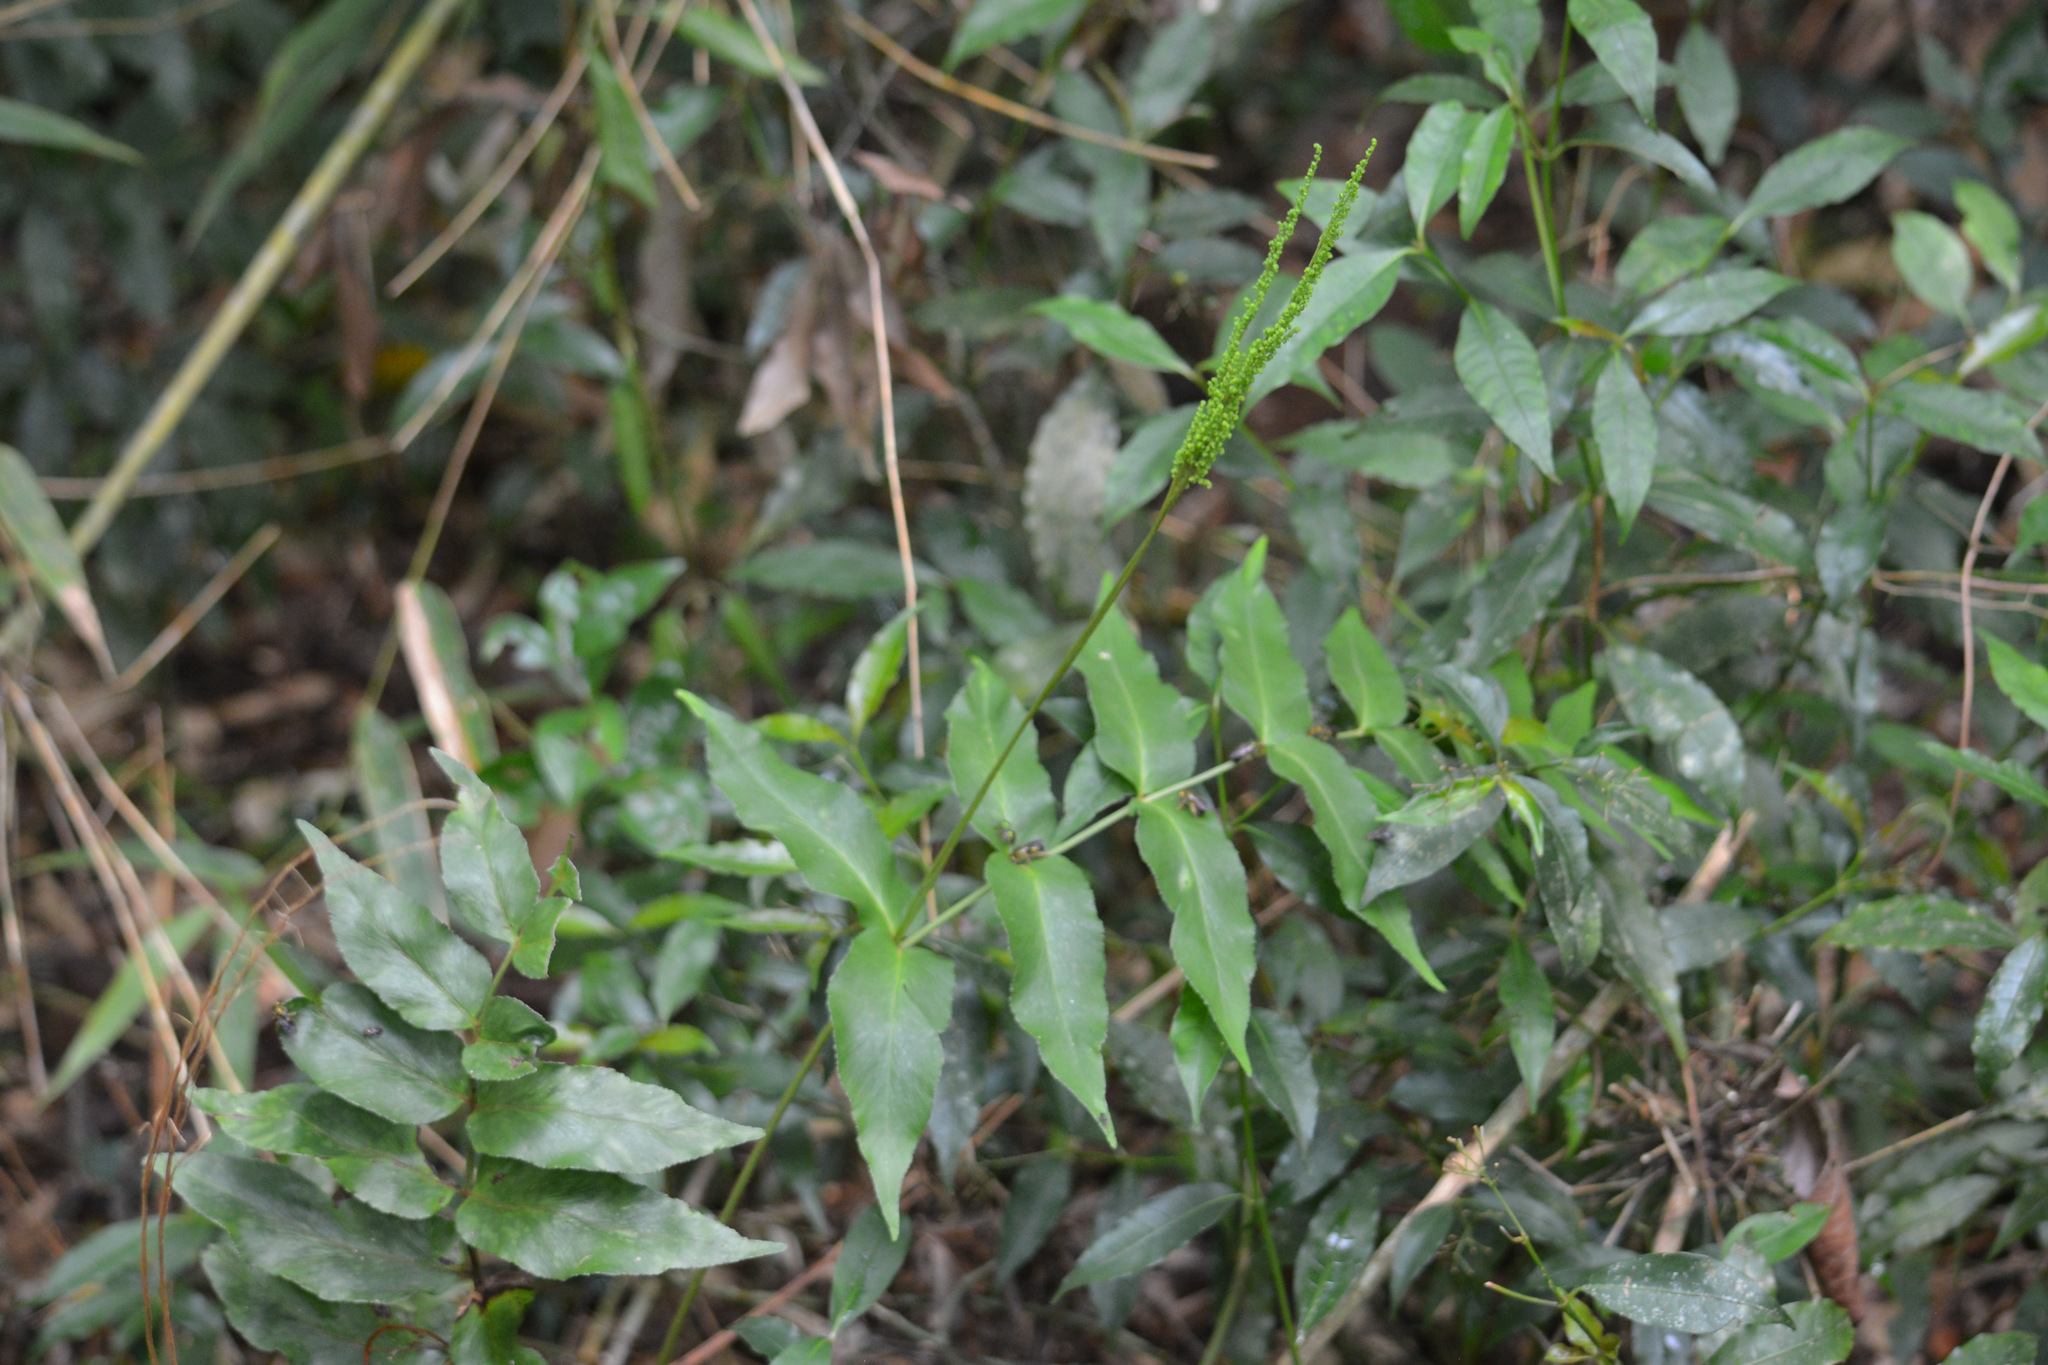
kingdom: Plantae
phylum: Tracheophyta
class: Polypodiopsida
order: Schizaeales
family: Anemiaceae
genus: Anemia
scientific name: Anemia phyllitidis
